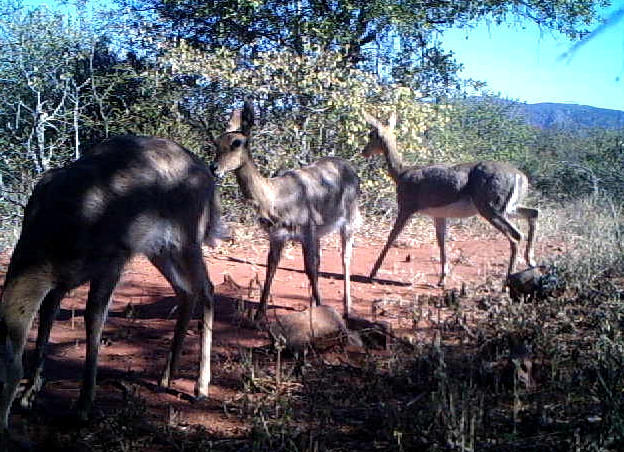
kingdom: Animalia
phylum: Chordata
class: Mammalia
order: Artiodactyla
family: Bovidae
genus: Redunca
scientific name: Redunca fulvorufula
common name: Mountain reedbuck
